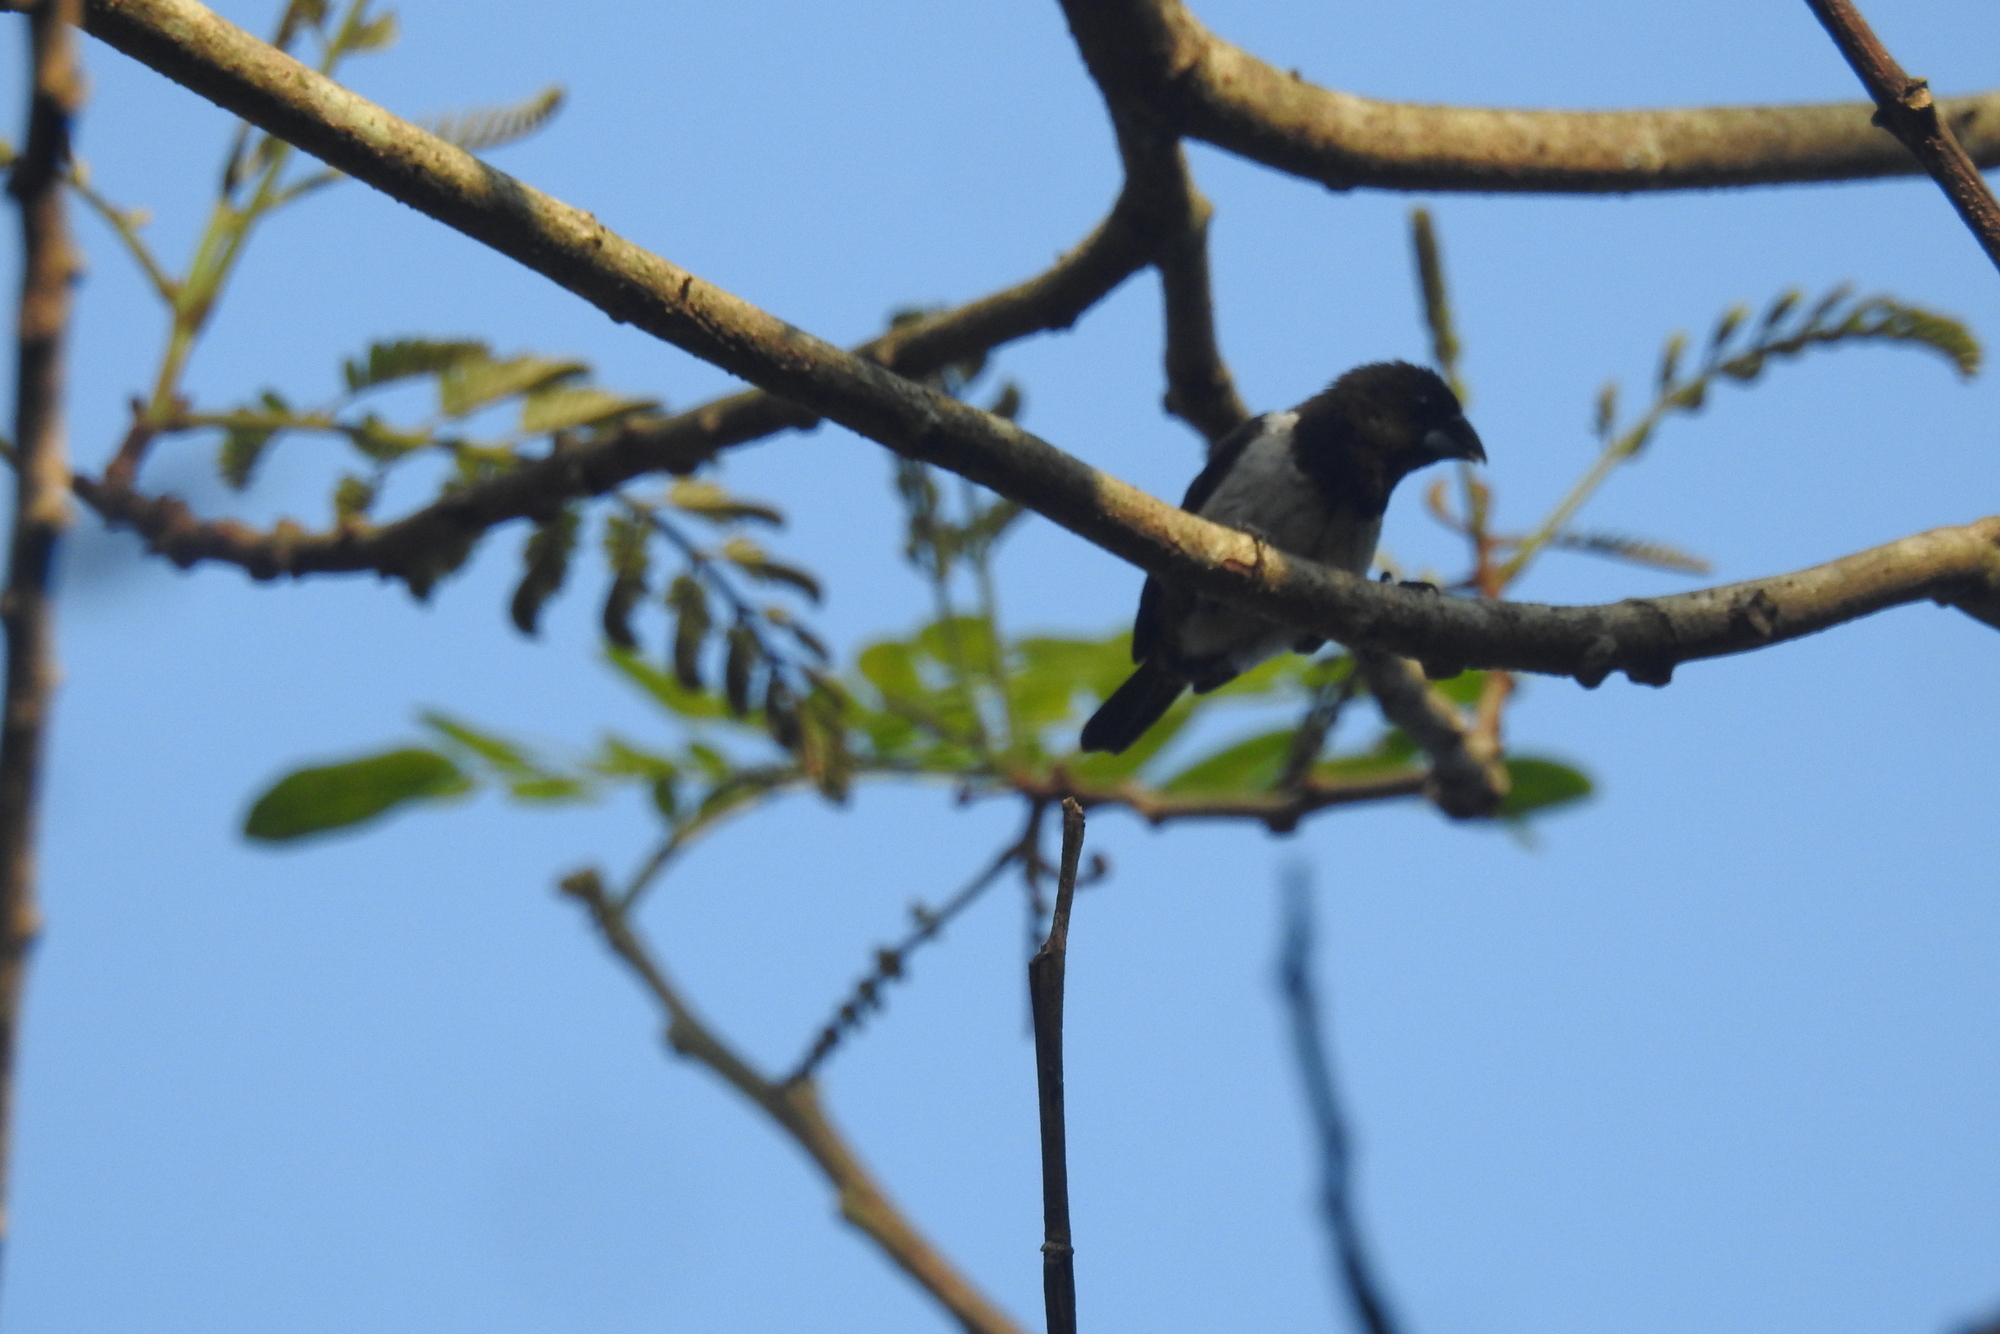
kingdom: Animalia
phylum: Chordata
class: Aves
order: Passeriformes
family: Estrildidae
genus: Lonchura
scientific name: Lonchura striata
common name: White-rumped munia
